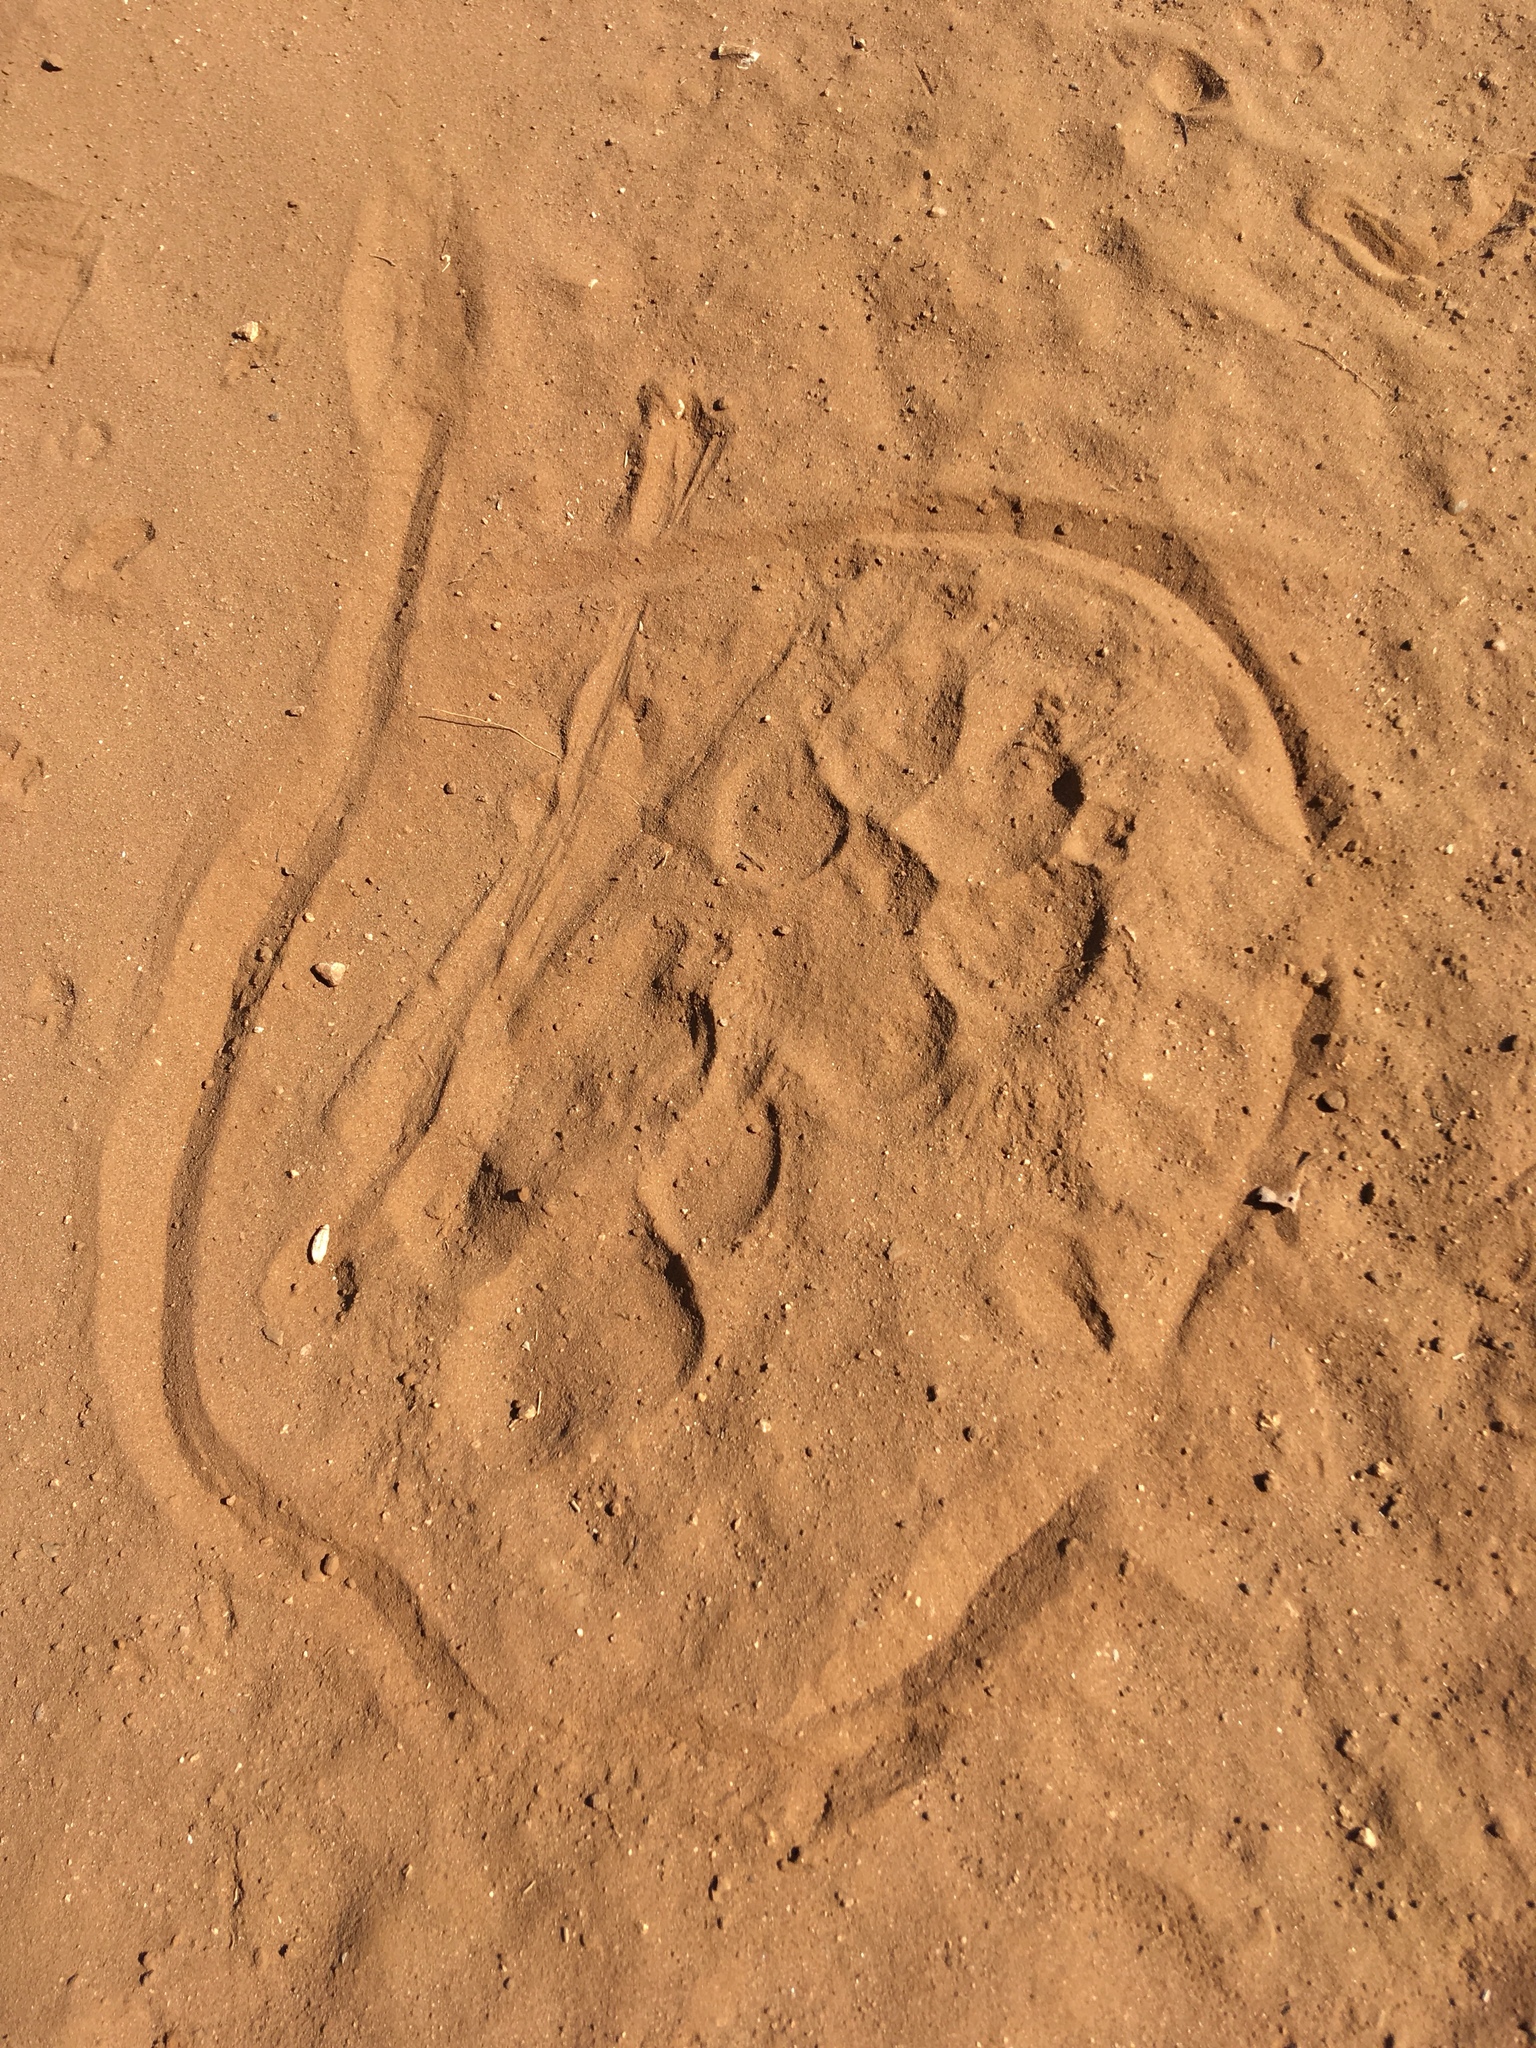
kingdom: Animalia
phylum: Chordata
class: Mammalia
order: Carnivora
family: Hyaenidae
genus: Crocuta
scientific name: Crocuta crocuta
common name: Spotted hyaena
